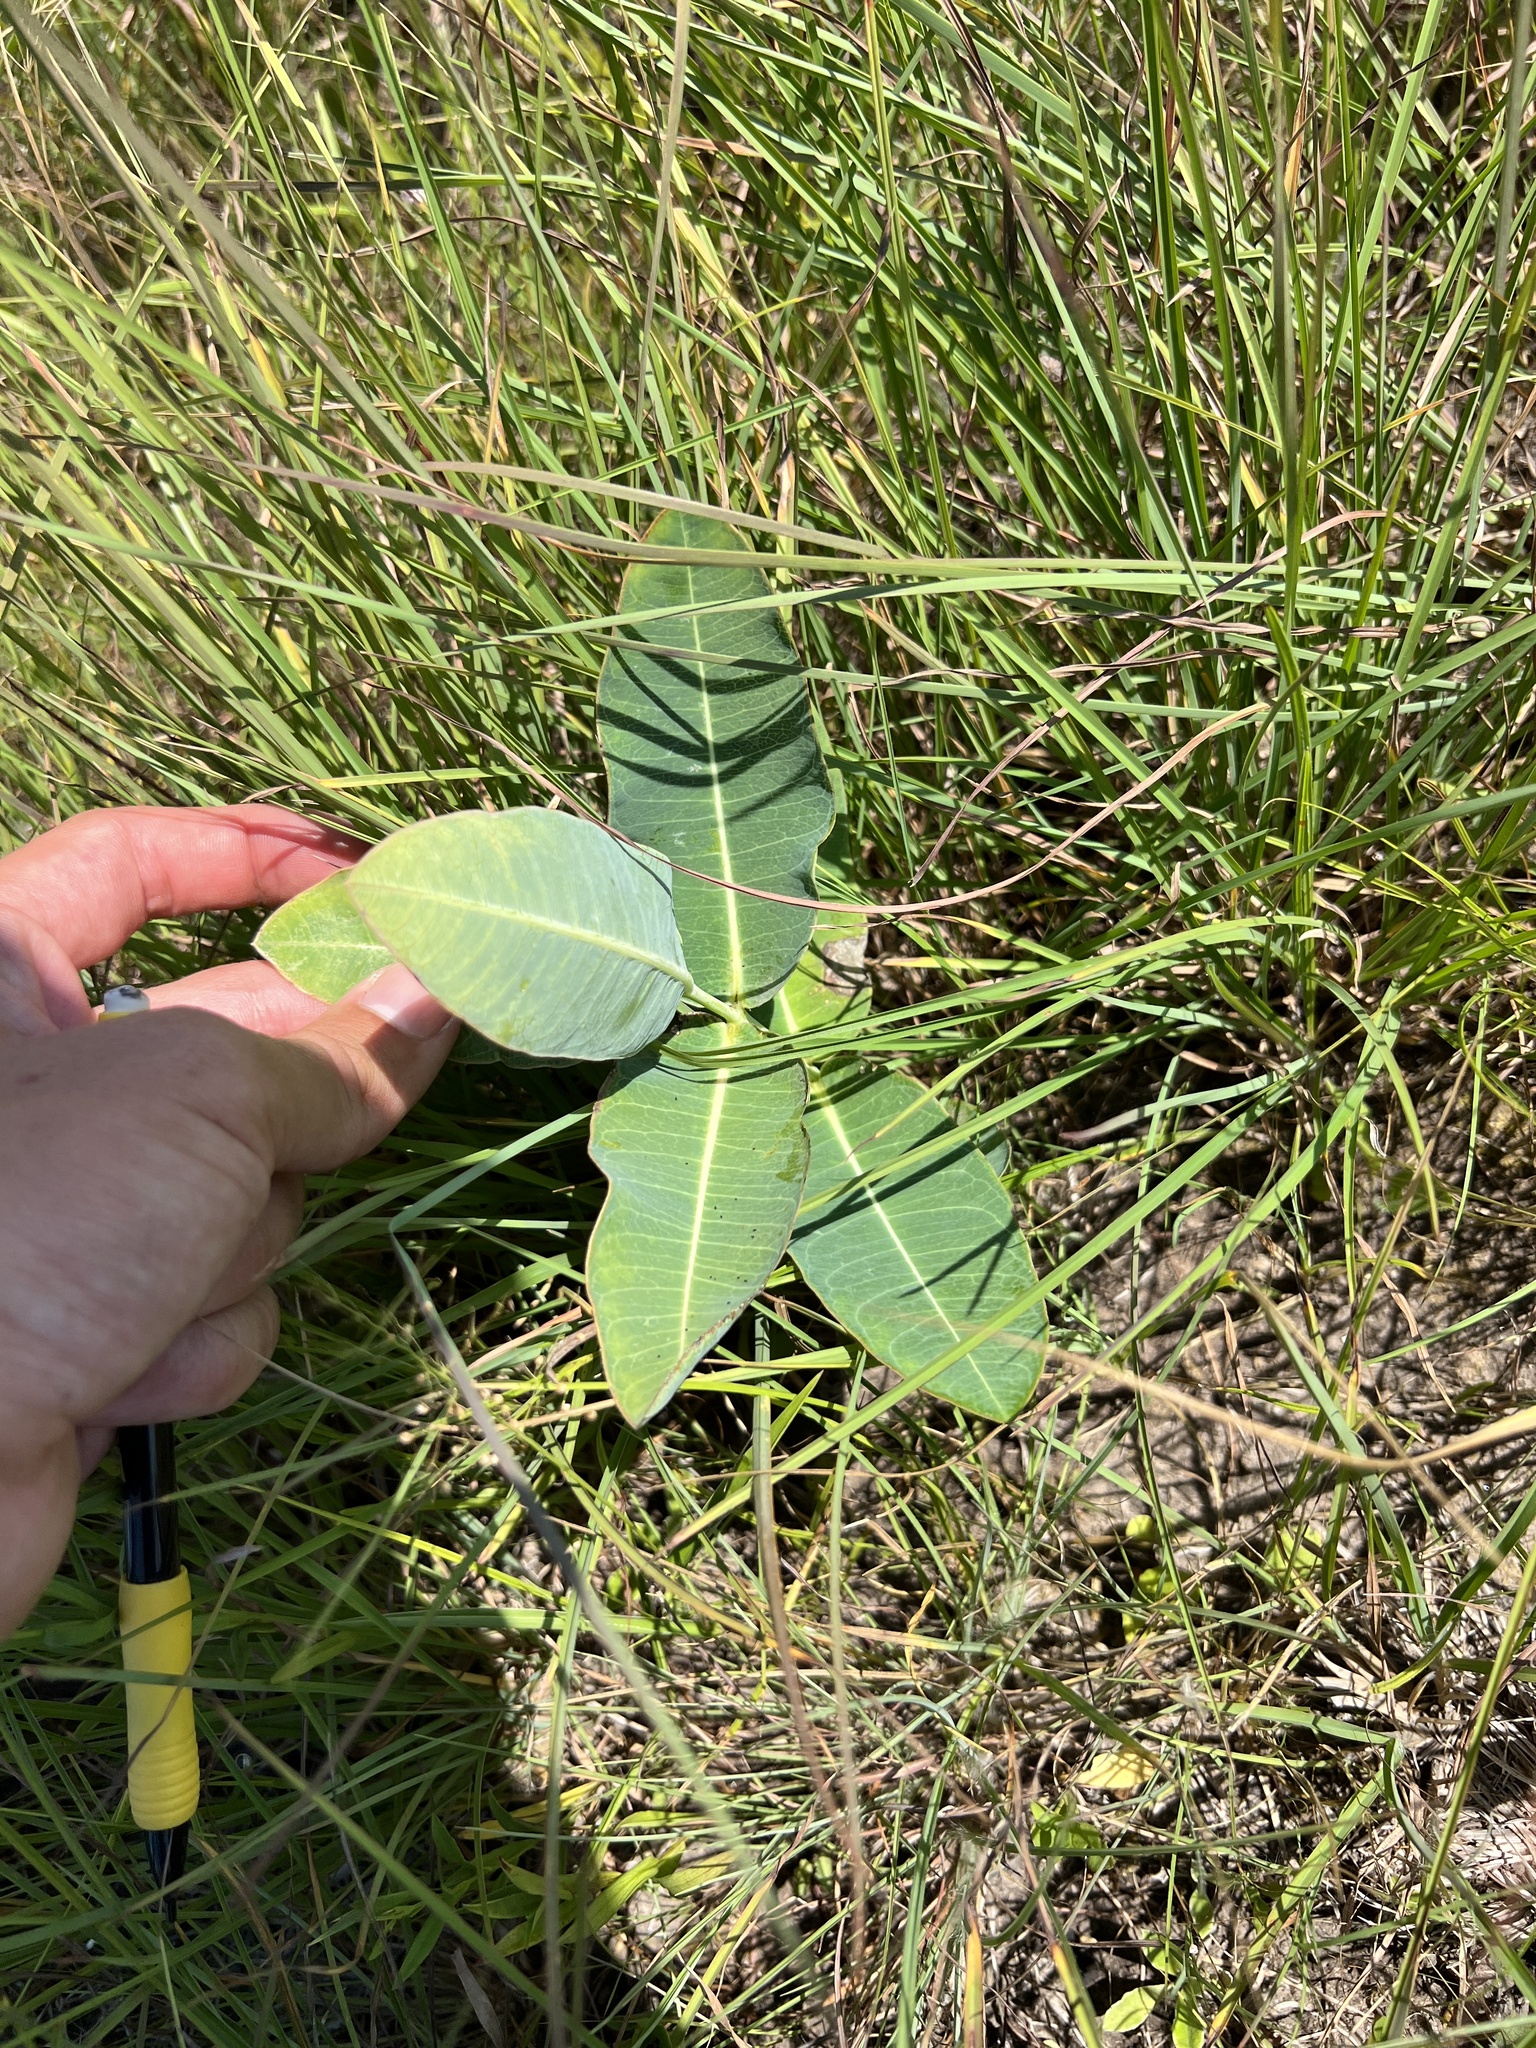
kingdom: Plantae
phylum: Tracheophyta
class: Magnoliopsida
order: Gentianales
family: Apocynaceae
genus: Asclepias
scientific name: Asclepias amplexicaulis
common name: Blunt-leaf milkweed
